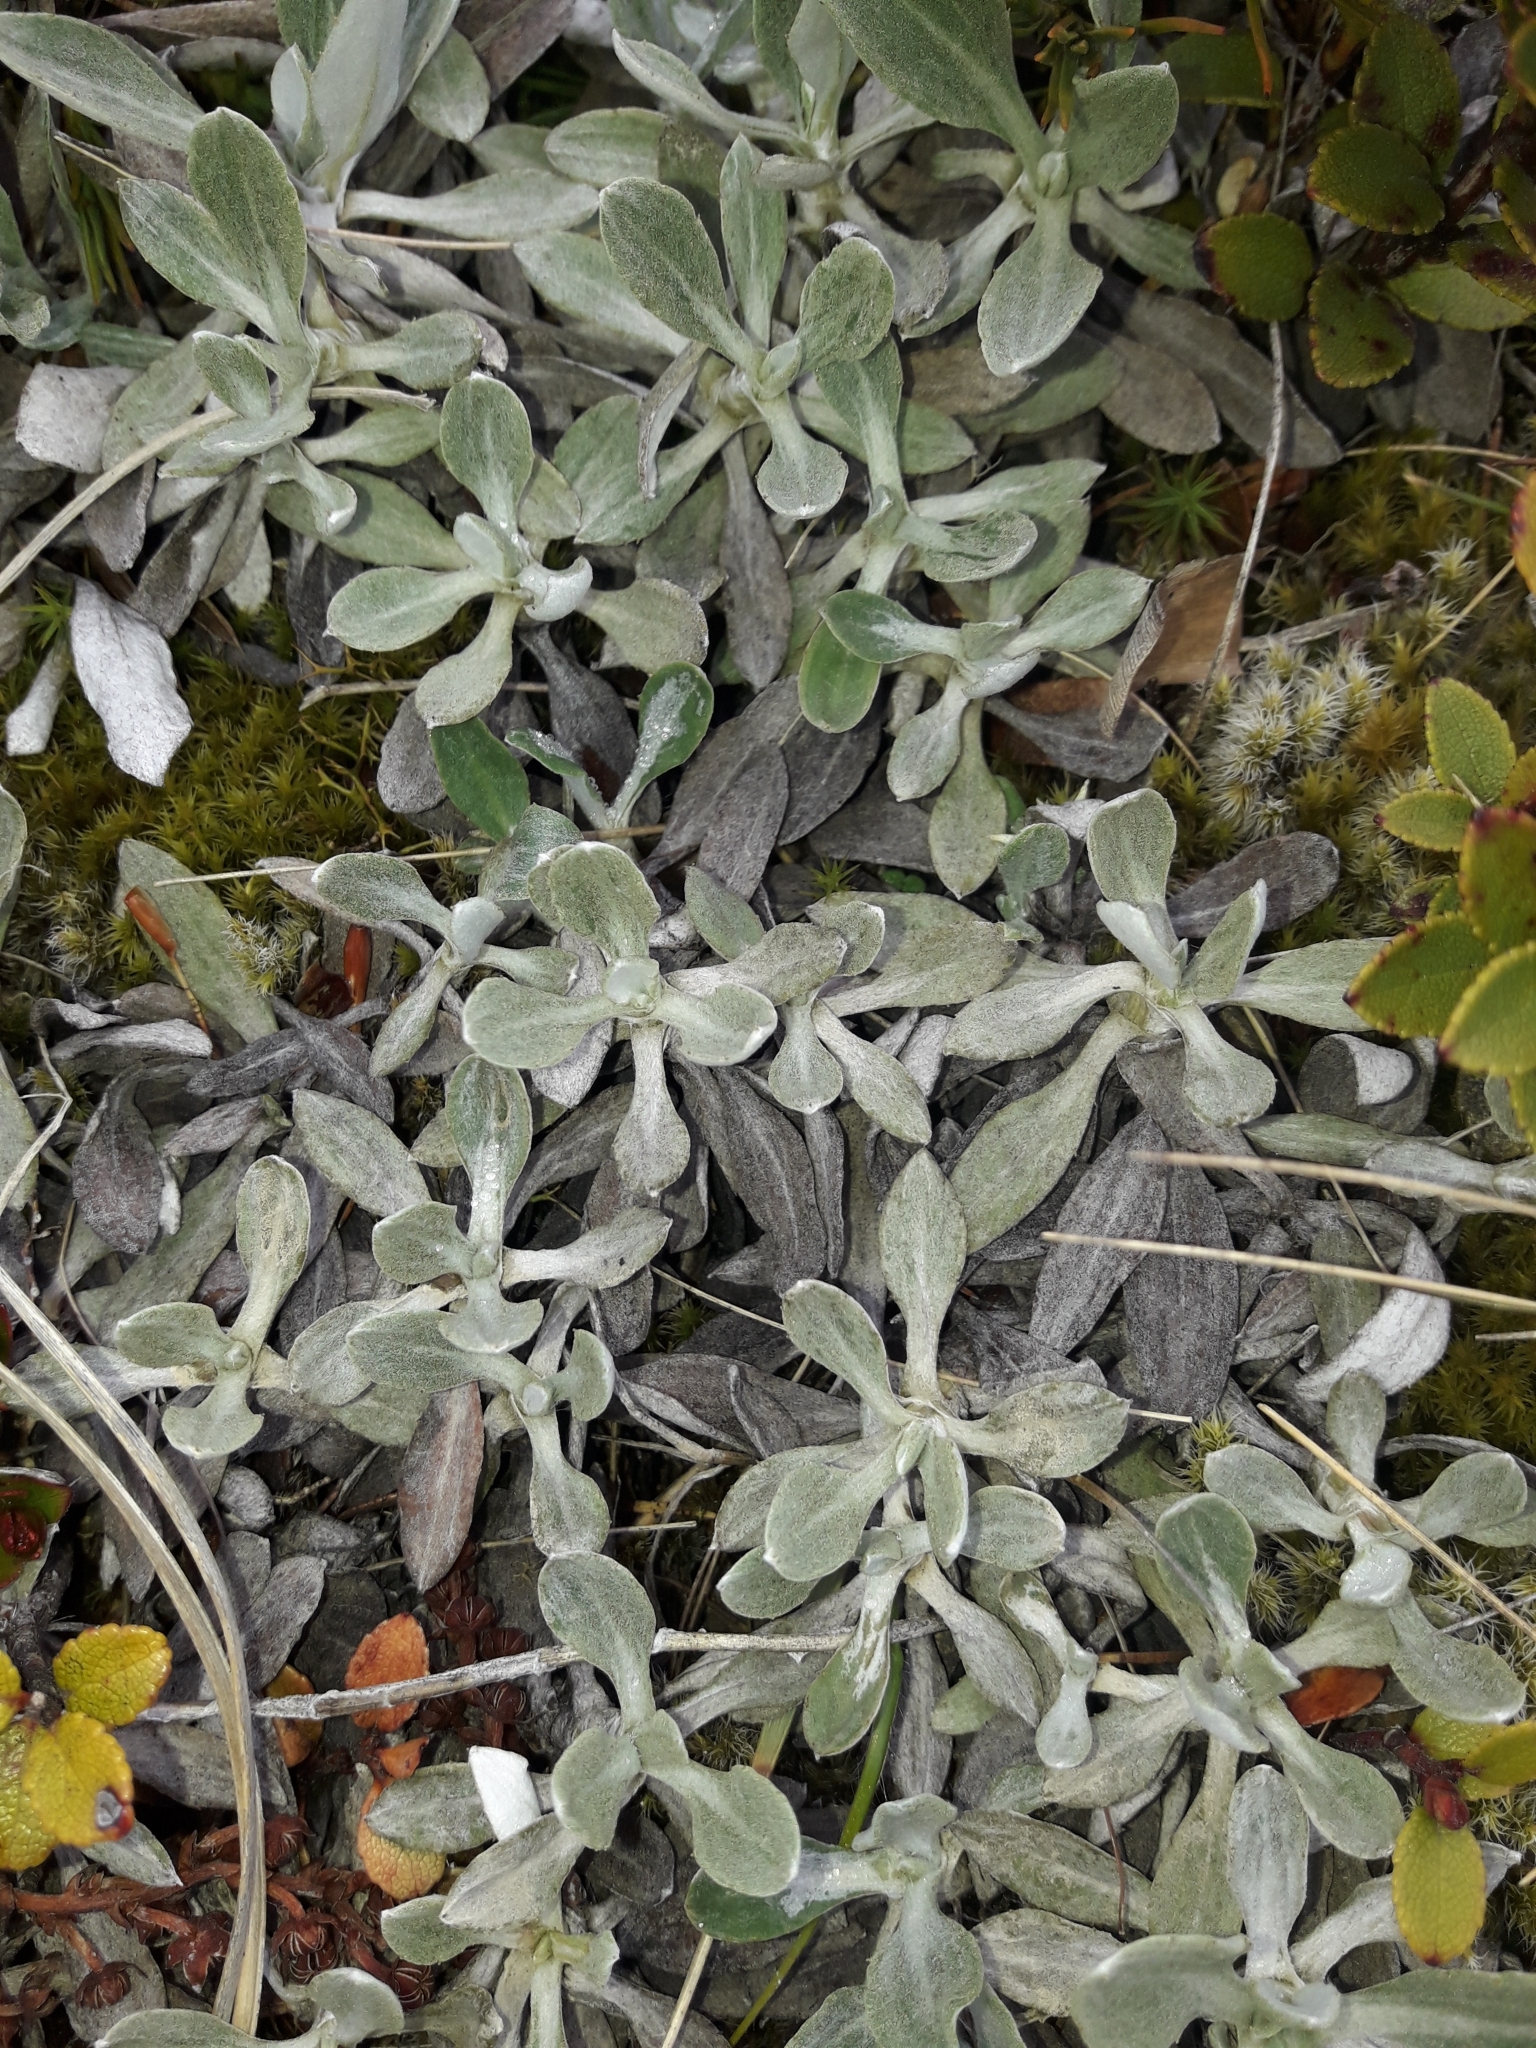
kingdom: Plantae
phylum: Tracheophyta
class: Magnoliopsida
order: Asterales
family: Asteraceae
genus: Celmisia
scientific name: Celmisia discolor
